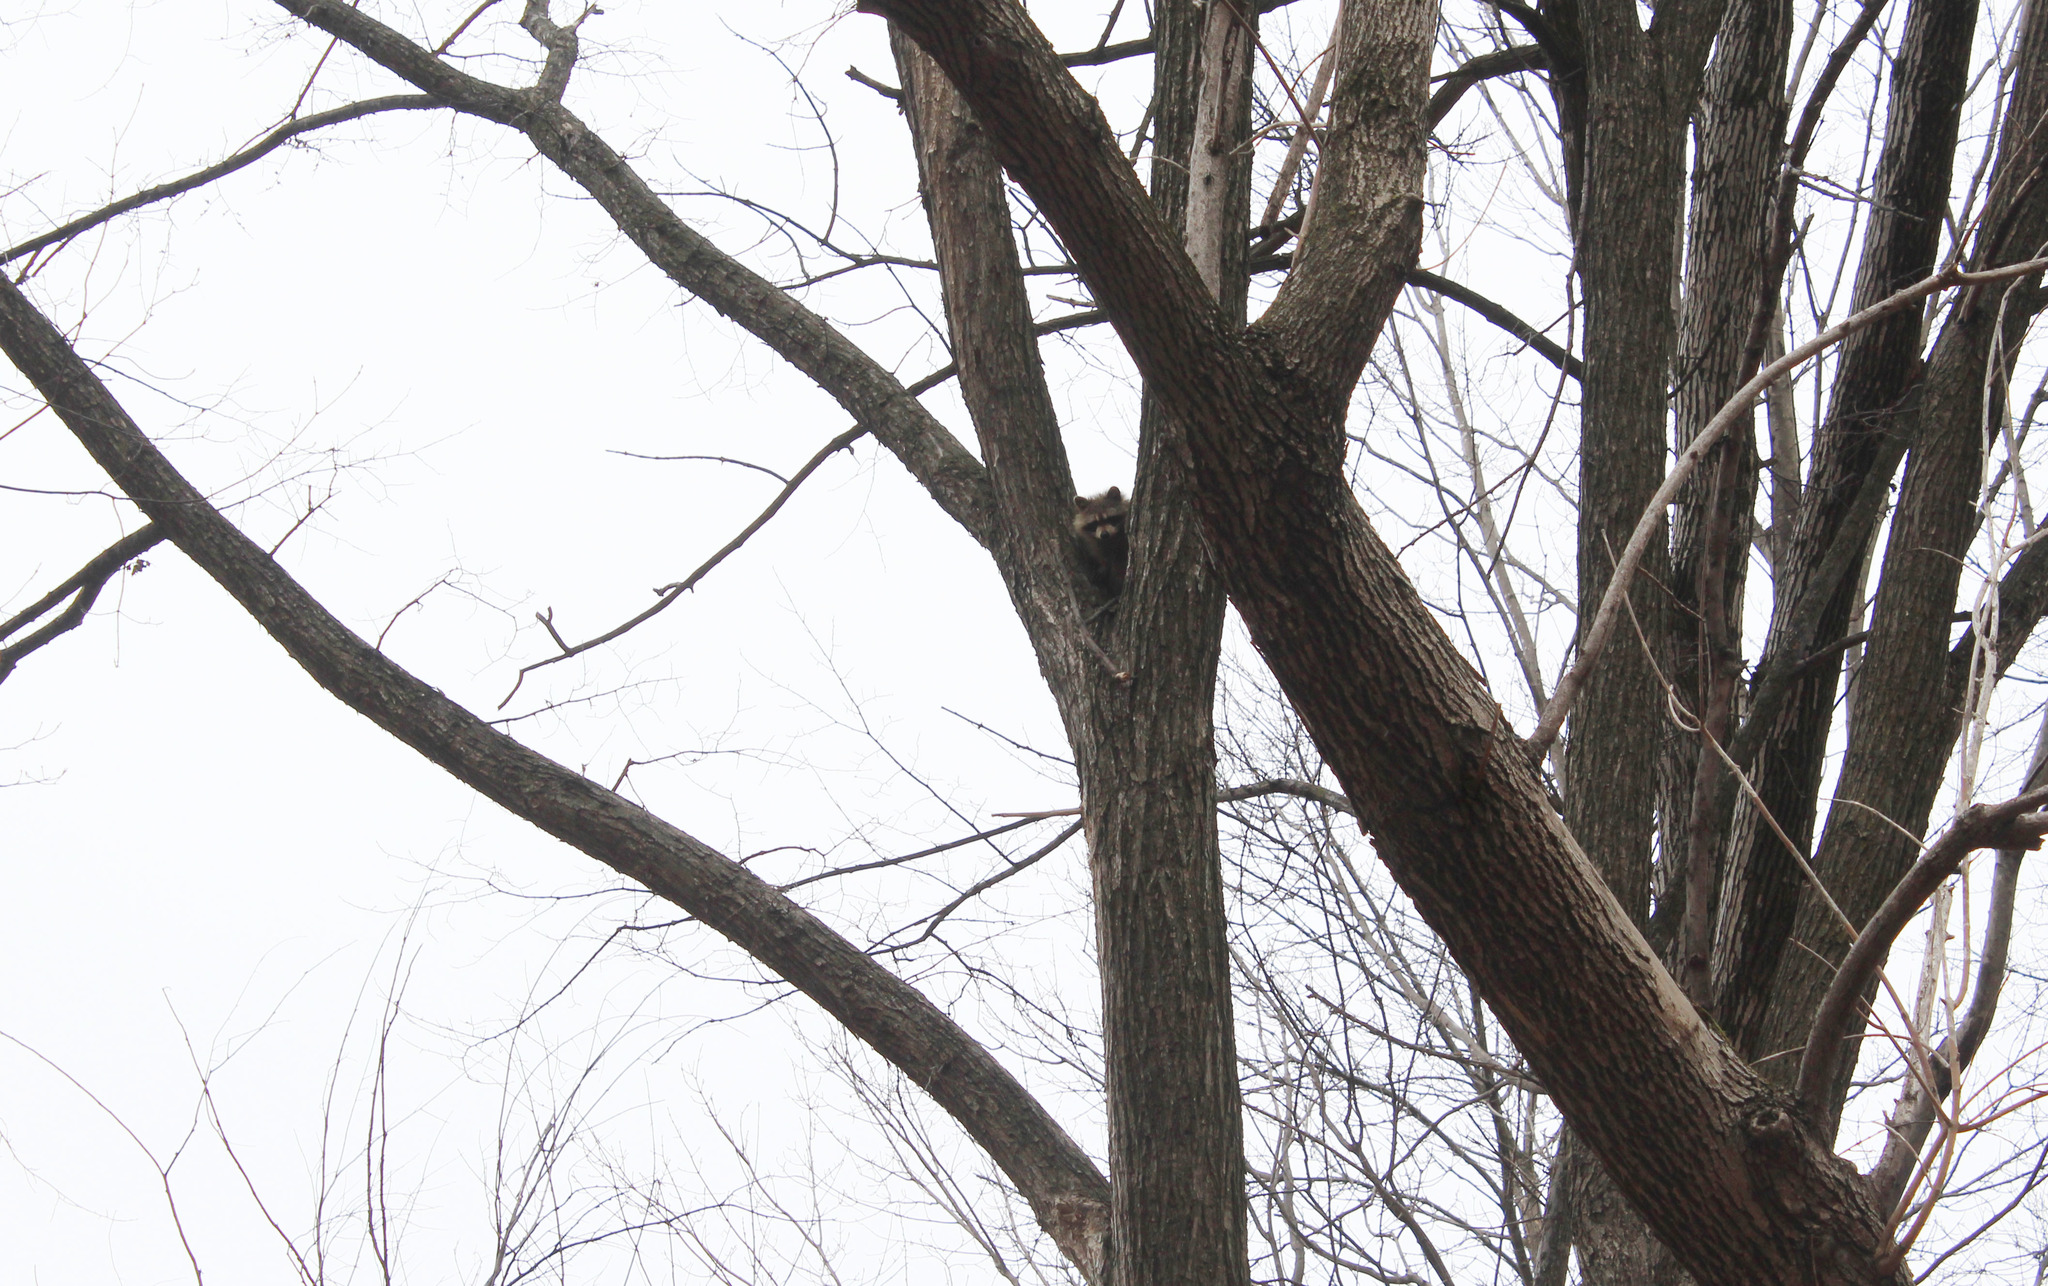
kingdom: Animalia
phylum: Chordata
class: Mammalia
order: Carnivora
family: Procyonidae
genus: Procyon
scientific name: Procyon lotor
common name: Raccoon
